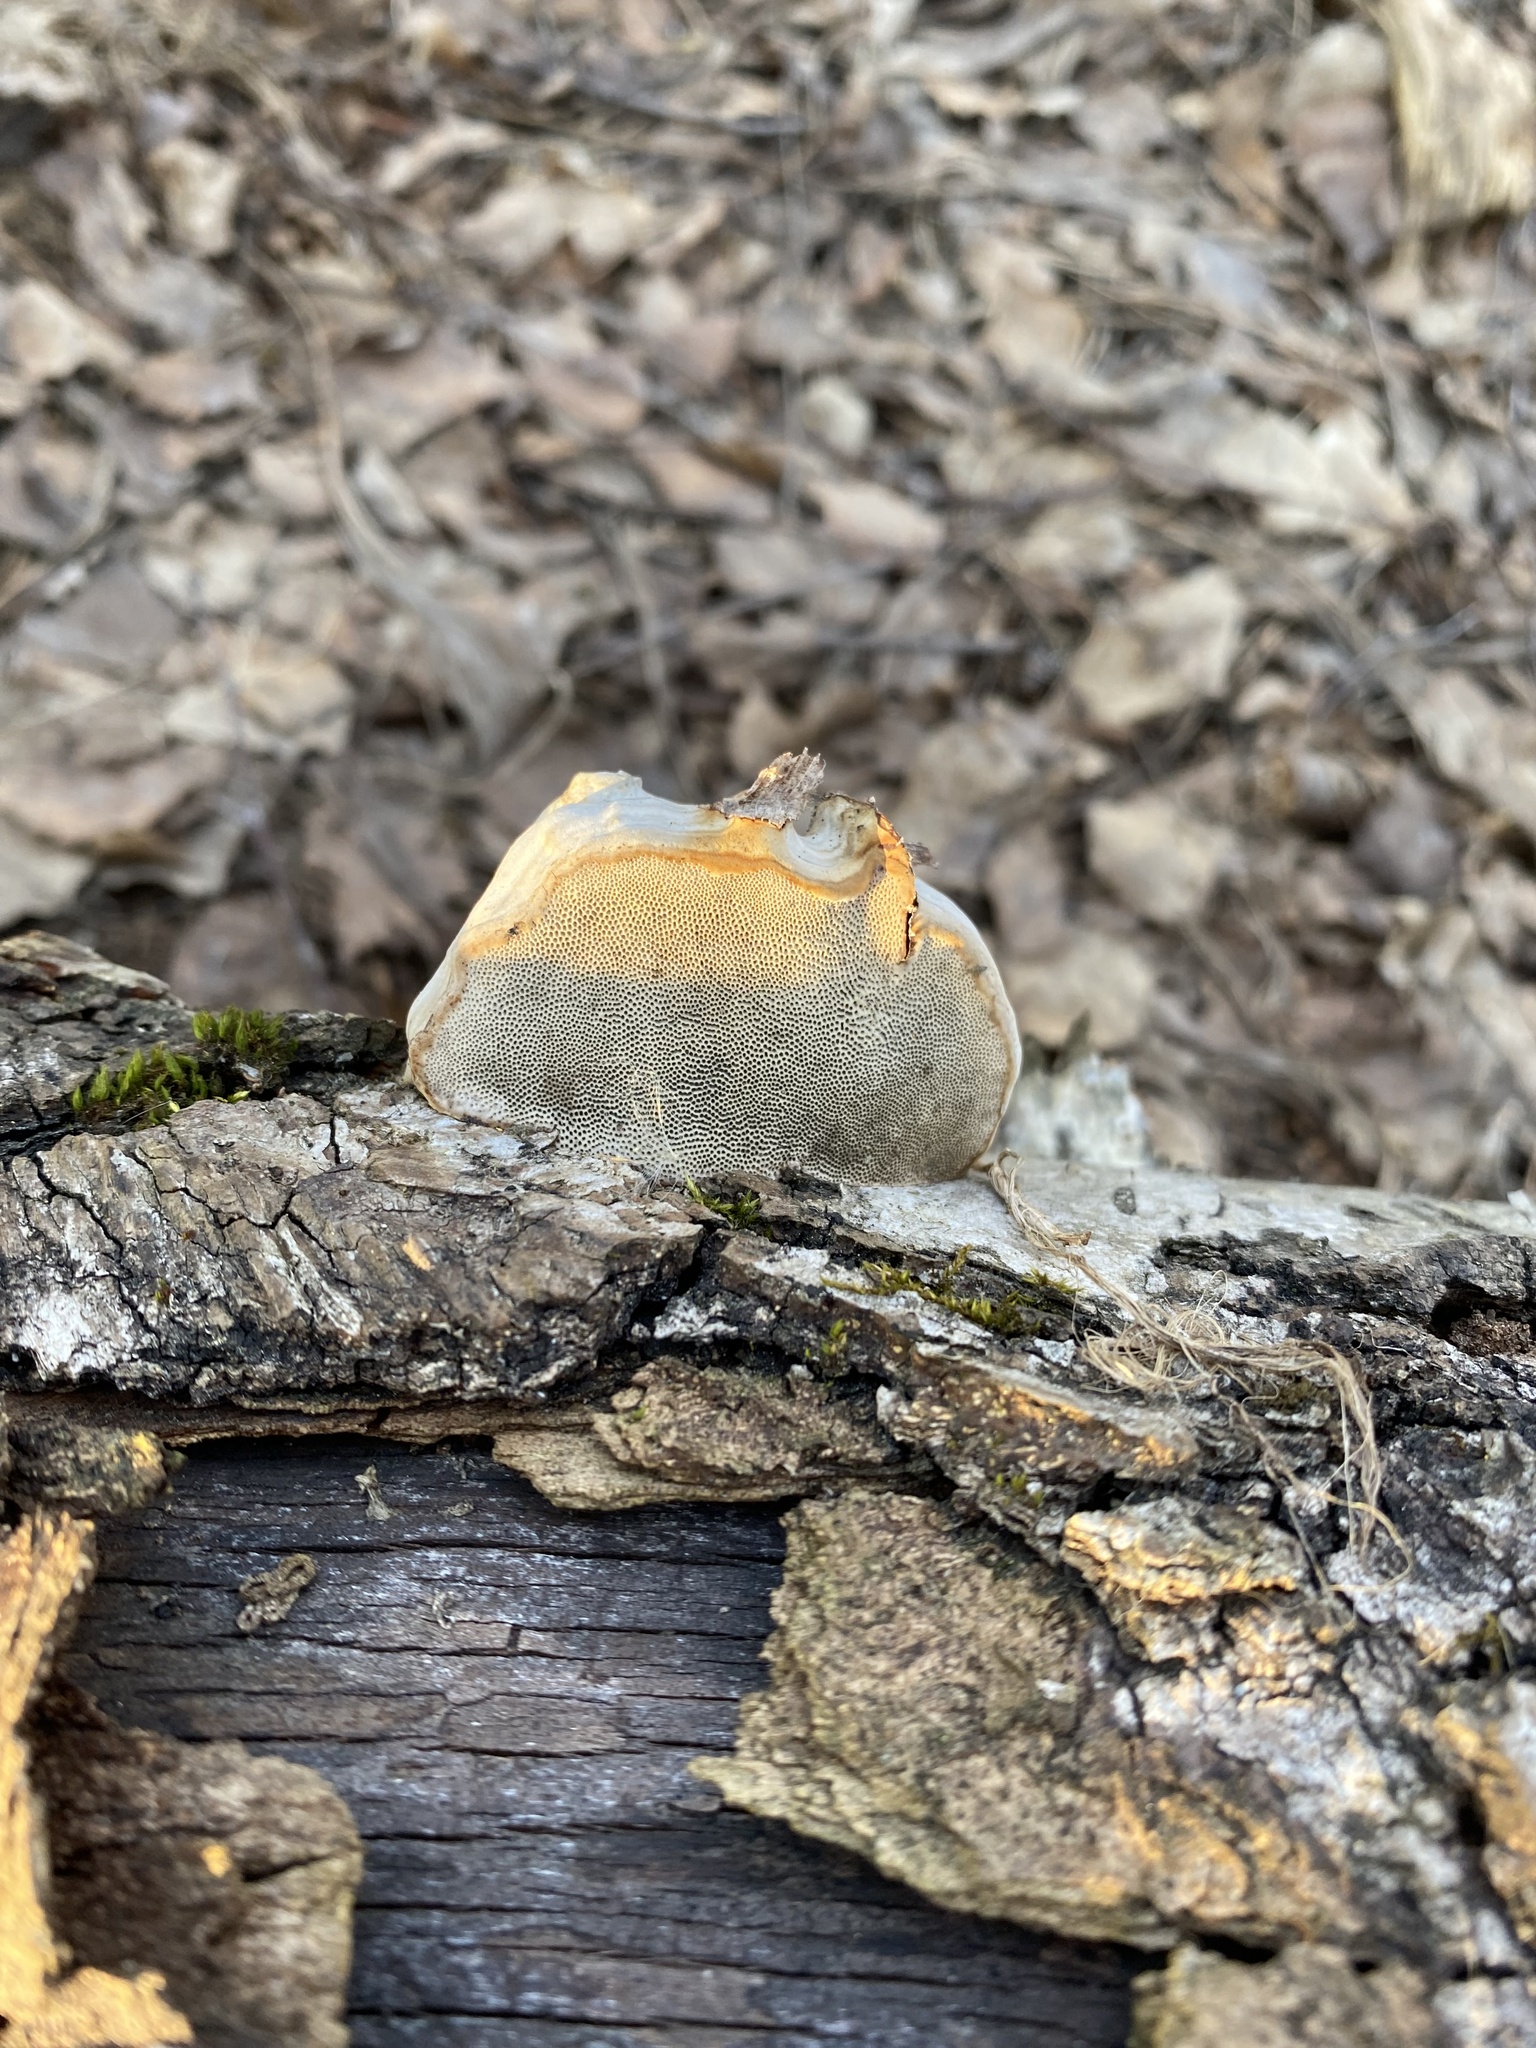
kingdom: Fungi
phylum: Basidiomycota
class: Agaricomycetes
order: Polyporales
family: Polyporaceae
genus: Fomes
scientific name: Fomes fomentarius
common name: Hoof fungus
